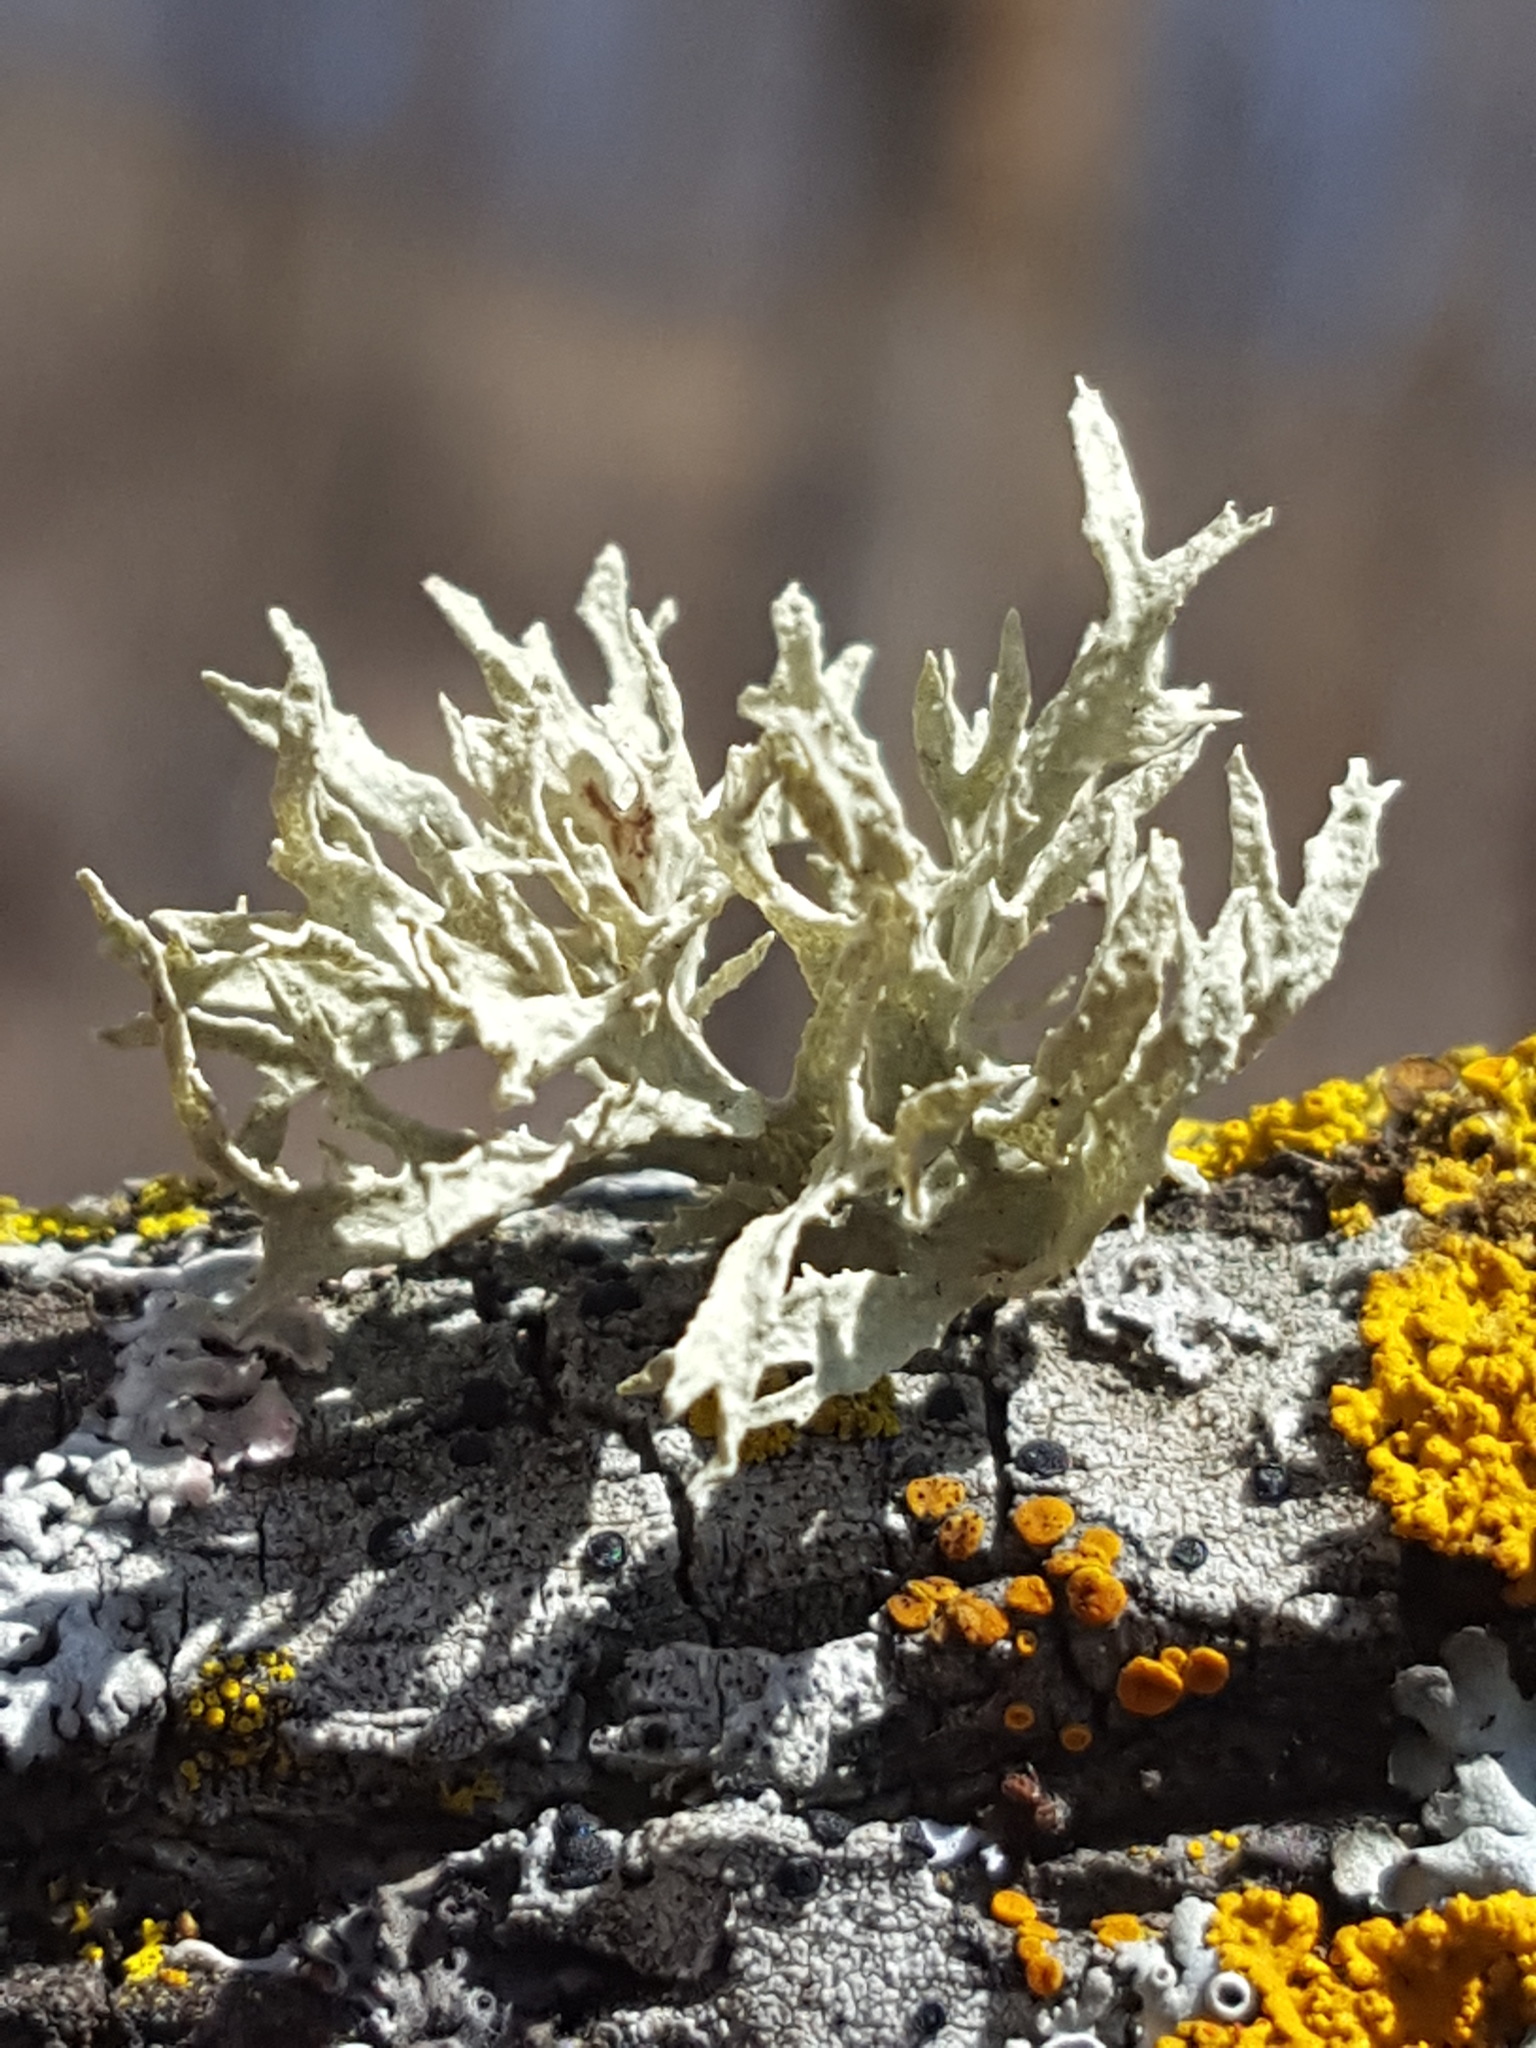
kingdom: Fungi
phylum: Ascomycota
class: Lecanoromycetes
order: Lecanorales
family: Ramalinaceae
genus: Ramalina
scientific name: Ramalina americana
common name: Sinewed bush lichen
